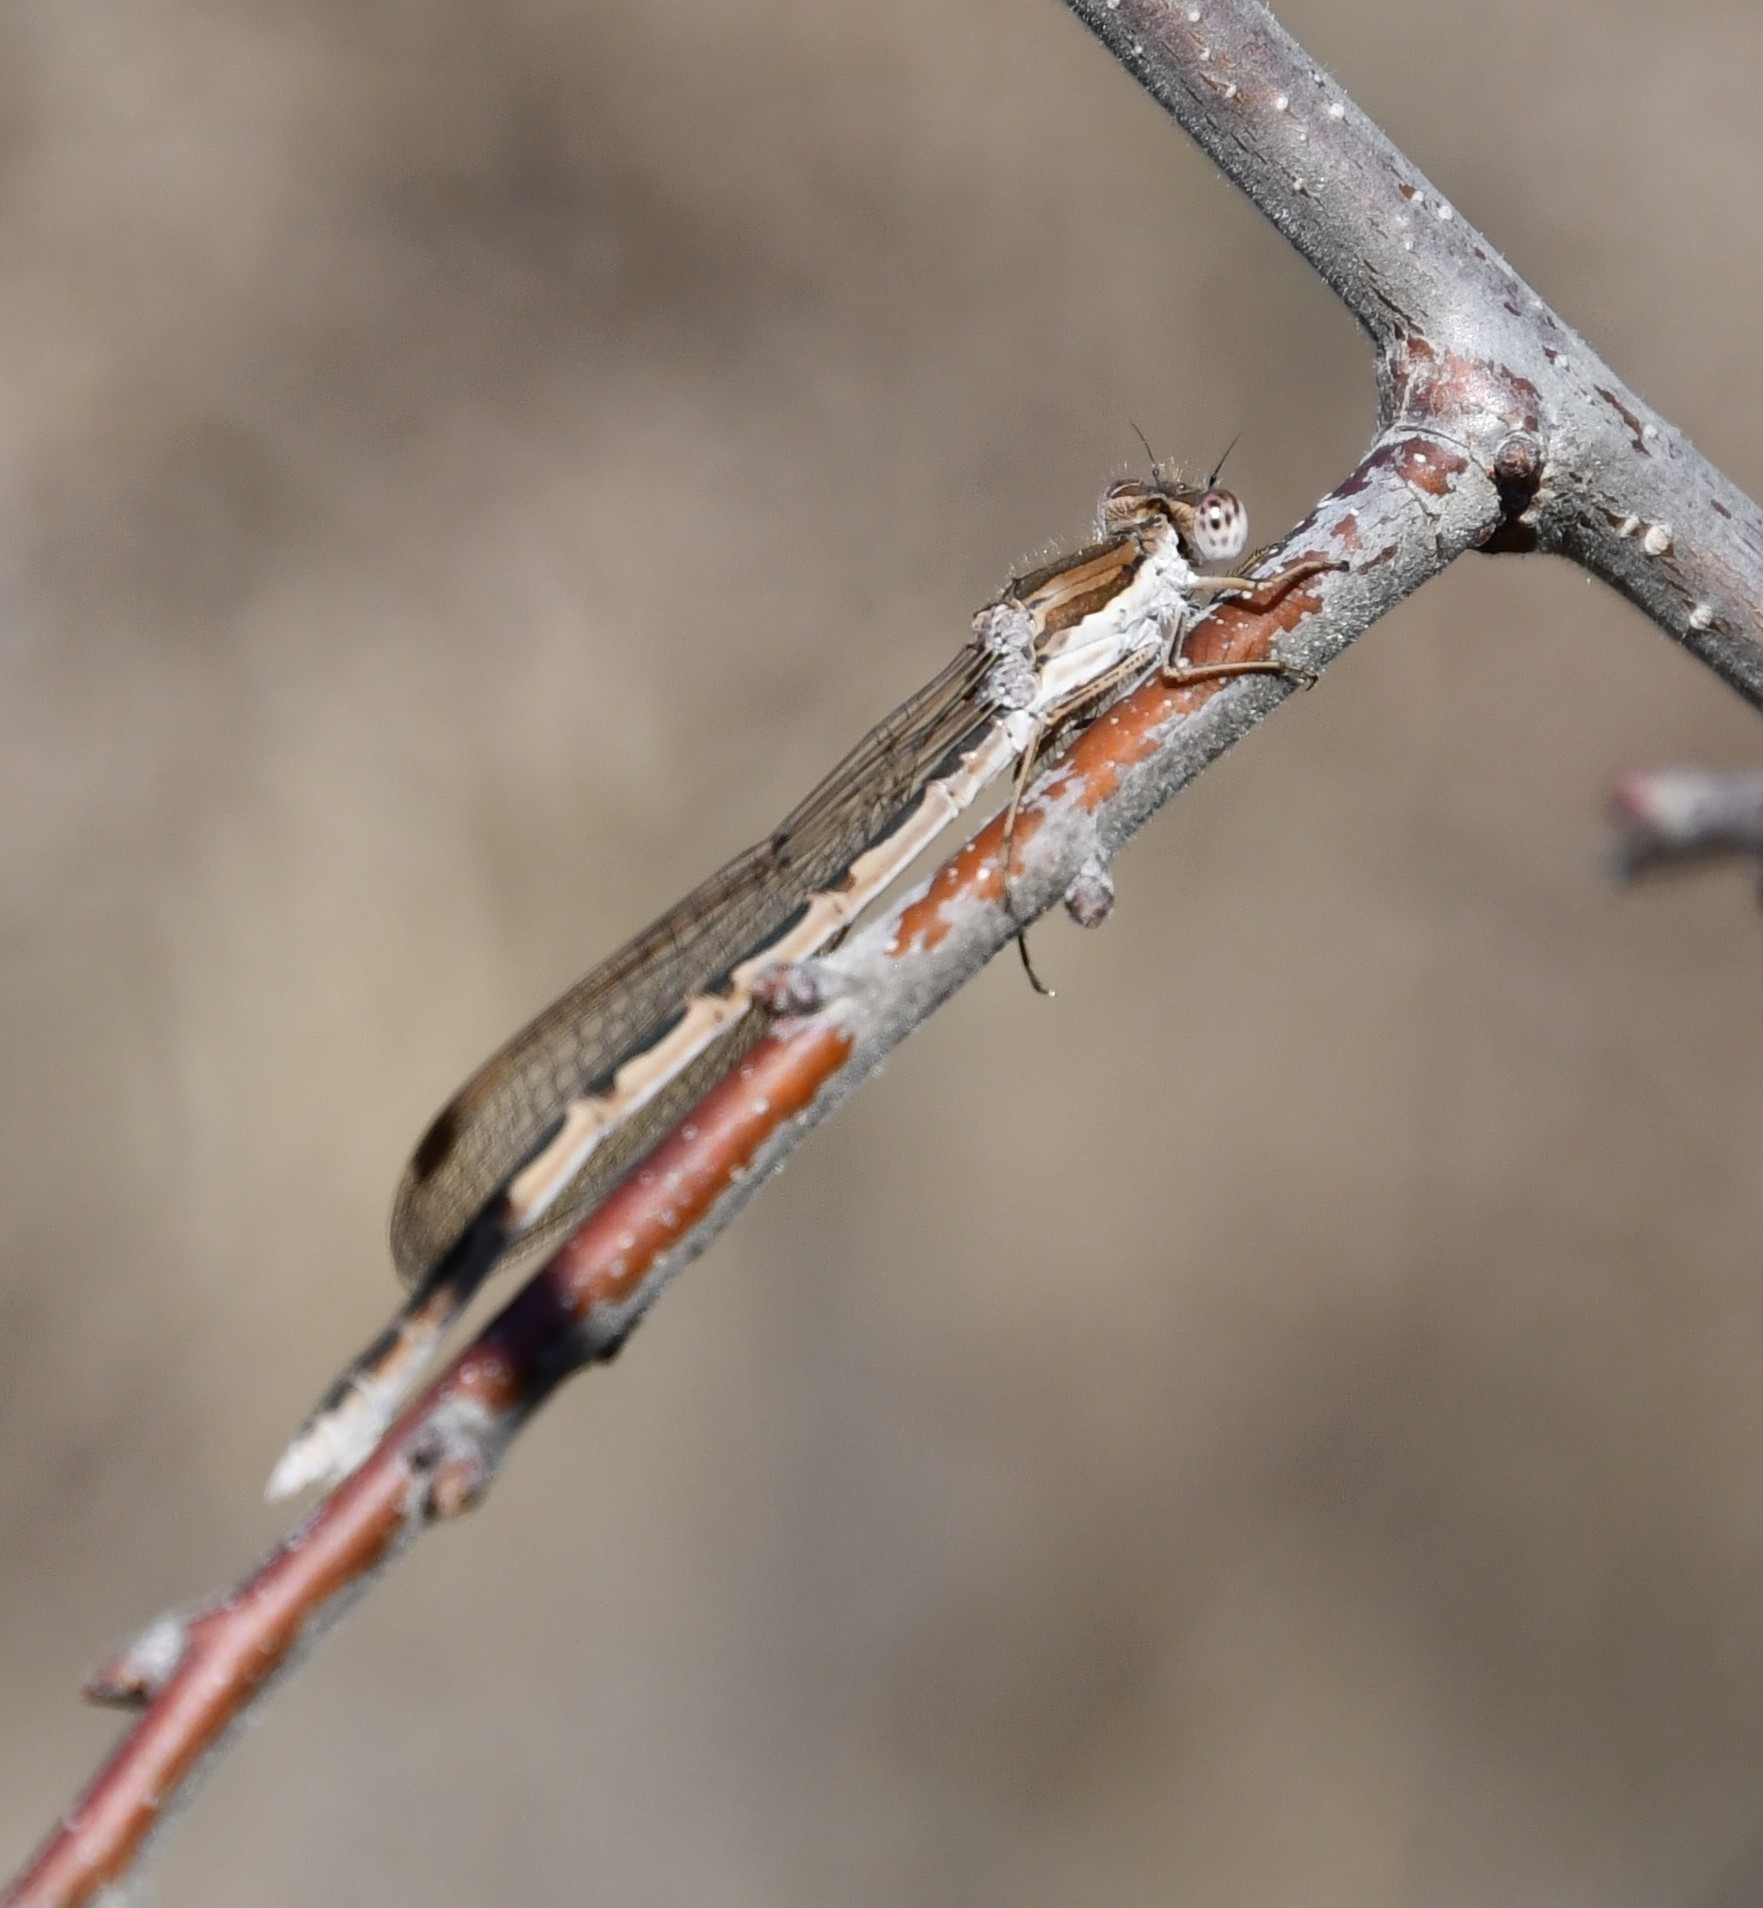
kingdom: Animalia
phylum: Arthropoda
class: Insecta
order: Odonata
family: Lestidae
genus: Sympecma
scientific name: Sympecma fusca
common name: Common winter damsel
